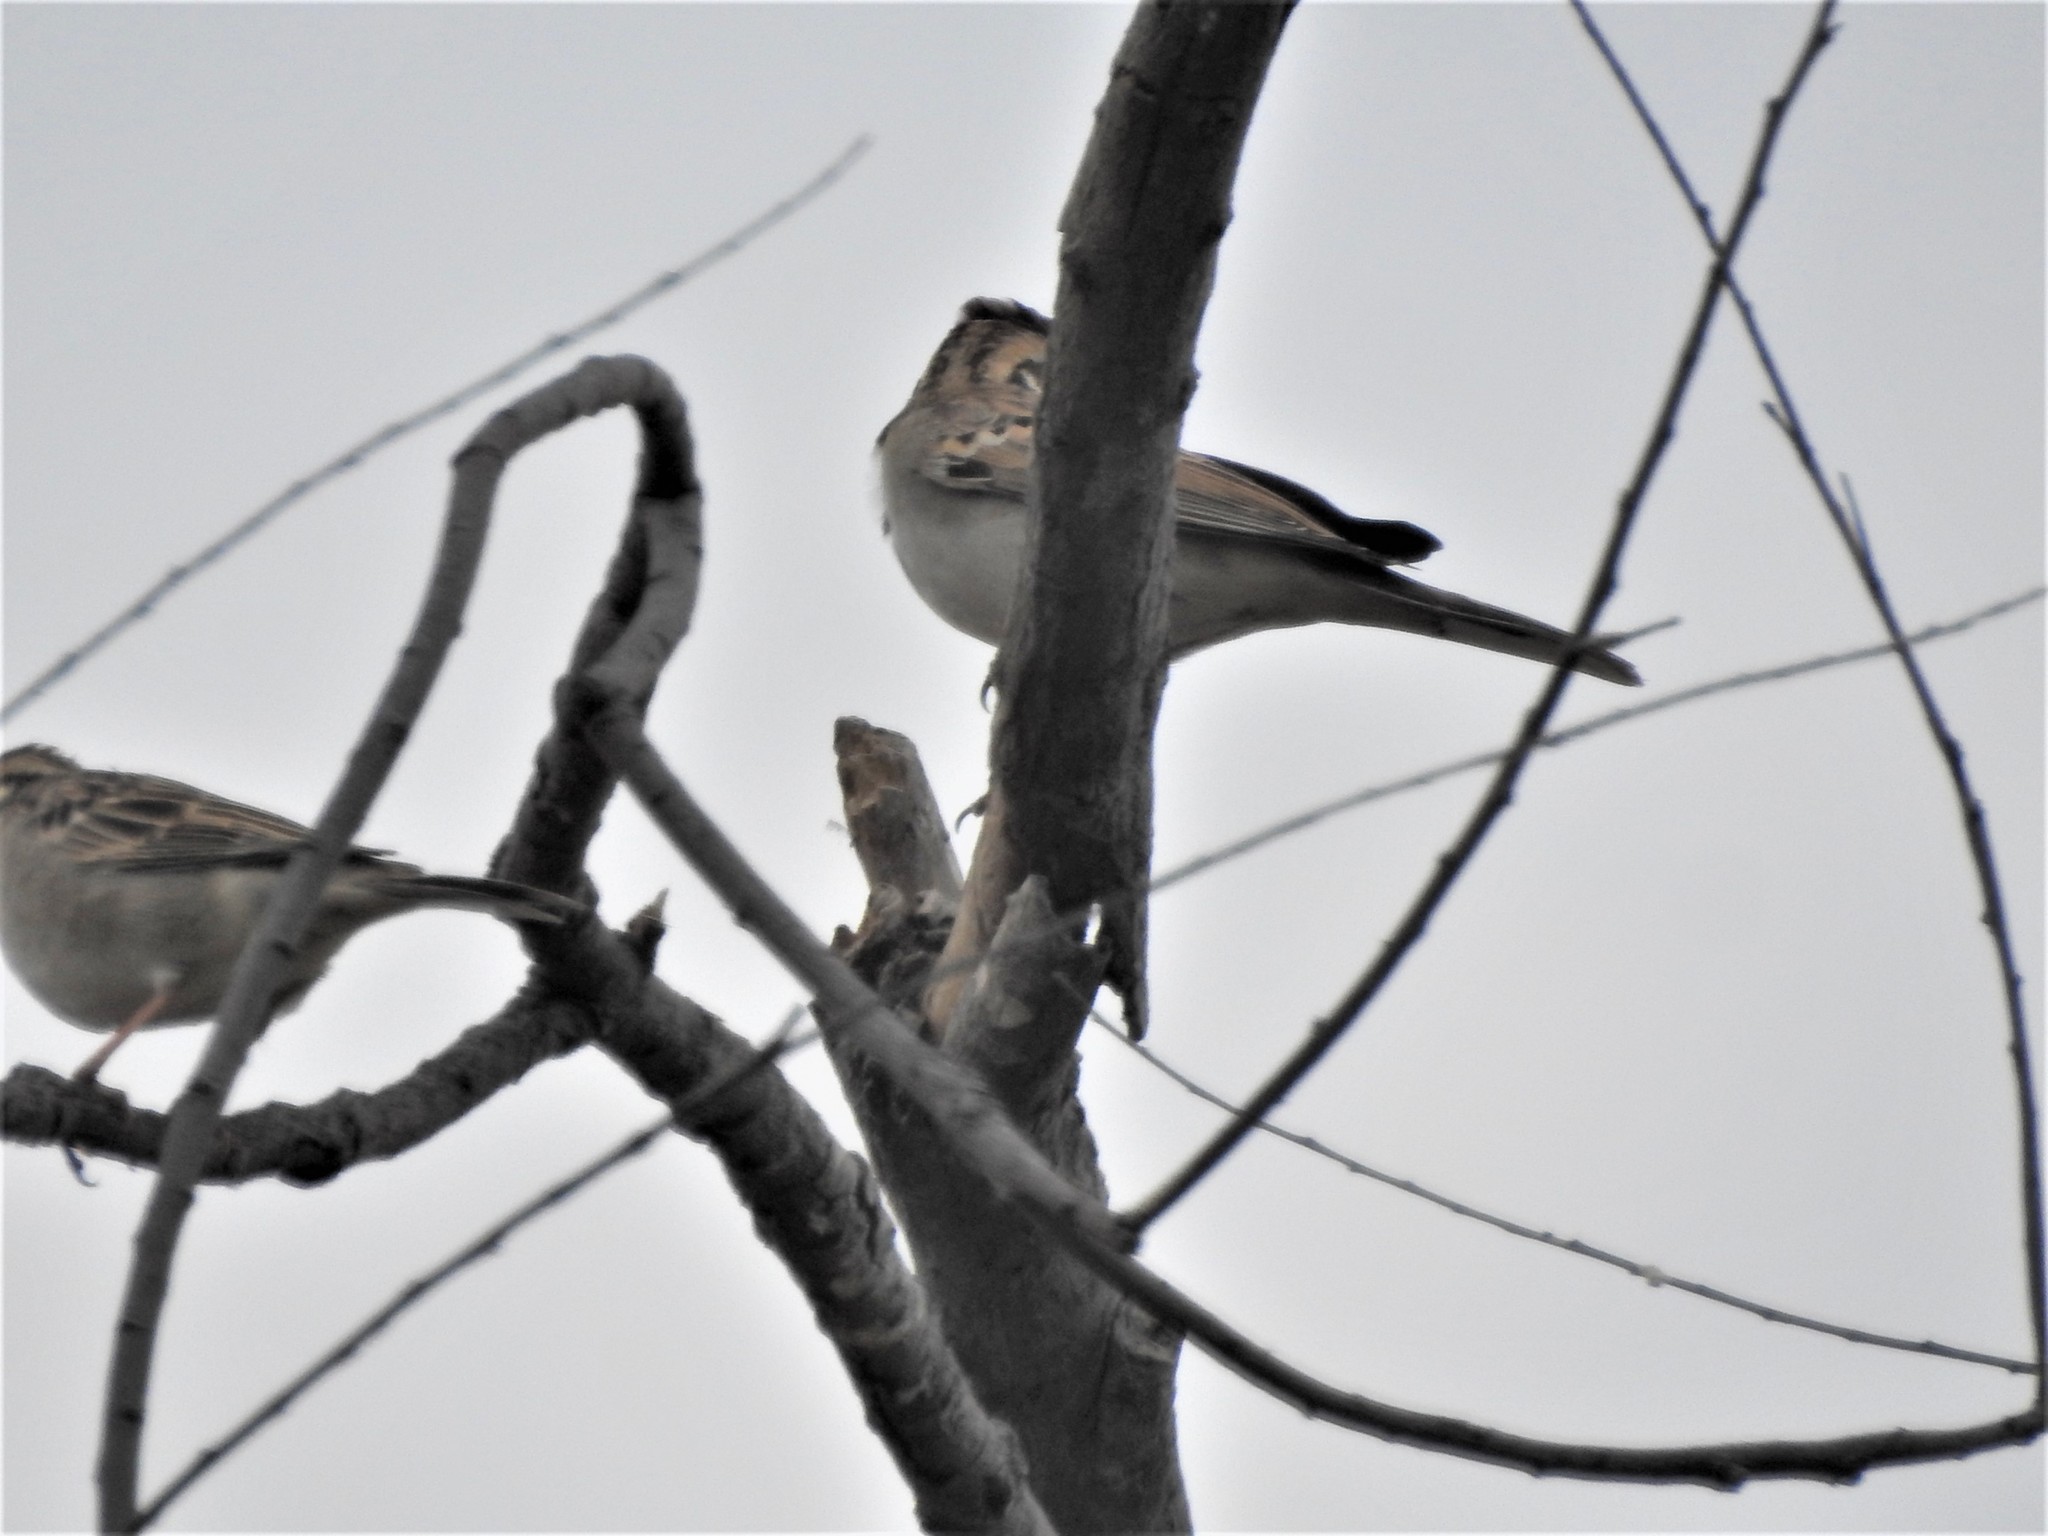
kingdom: Animalia
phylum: Chordata
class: Aves
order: Passeriformes
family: Passerellidae
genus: Chondestes
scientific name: Chondestes grammacus
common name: Lark sparrow
